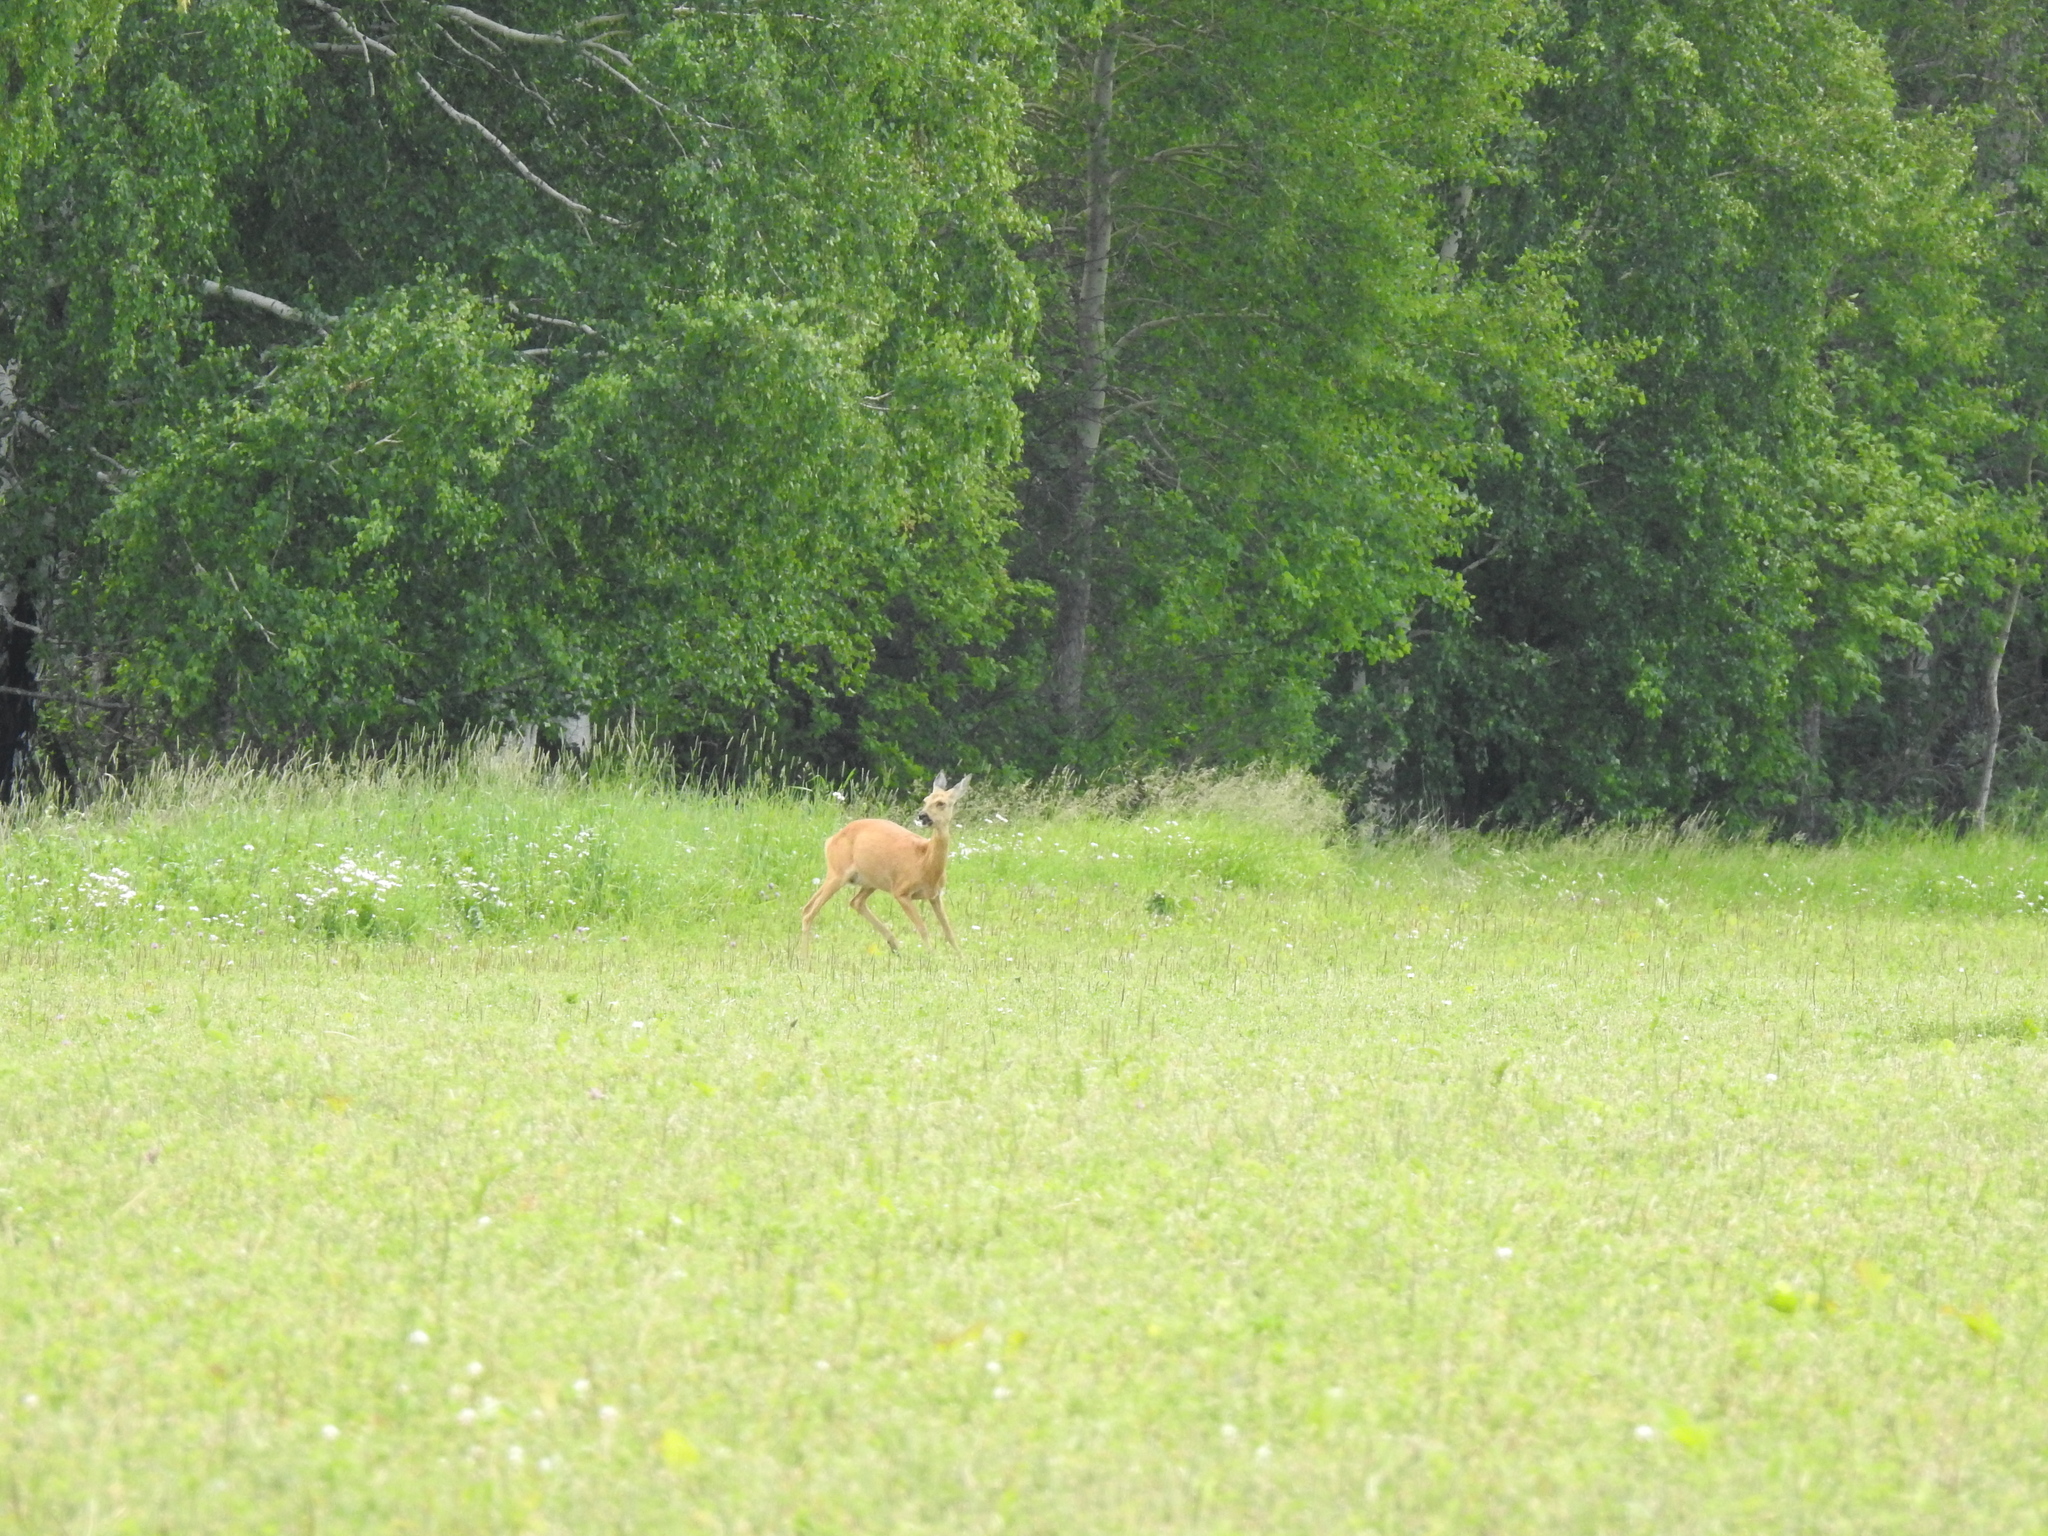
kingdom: Animalia
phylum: Chordata
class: Mammalia
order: Artiodactyla
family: Cervidae
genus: Capreolus
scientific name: Capreolus pygargus
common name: Siberian roe
